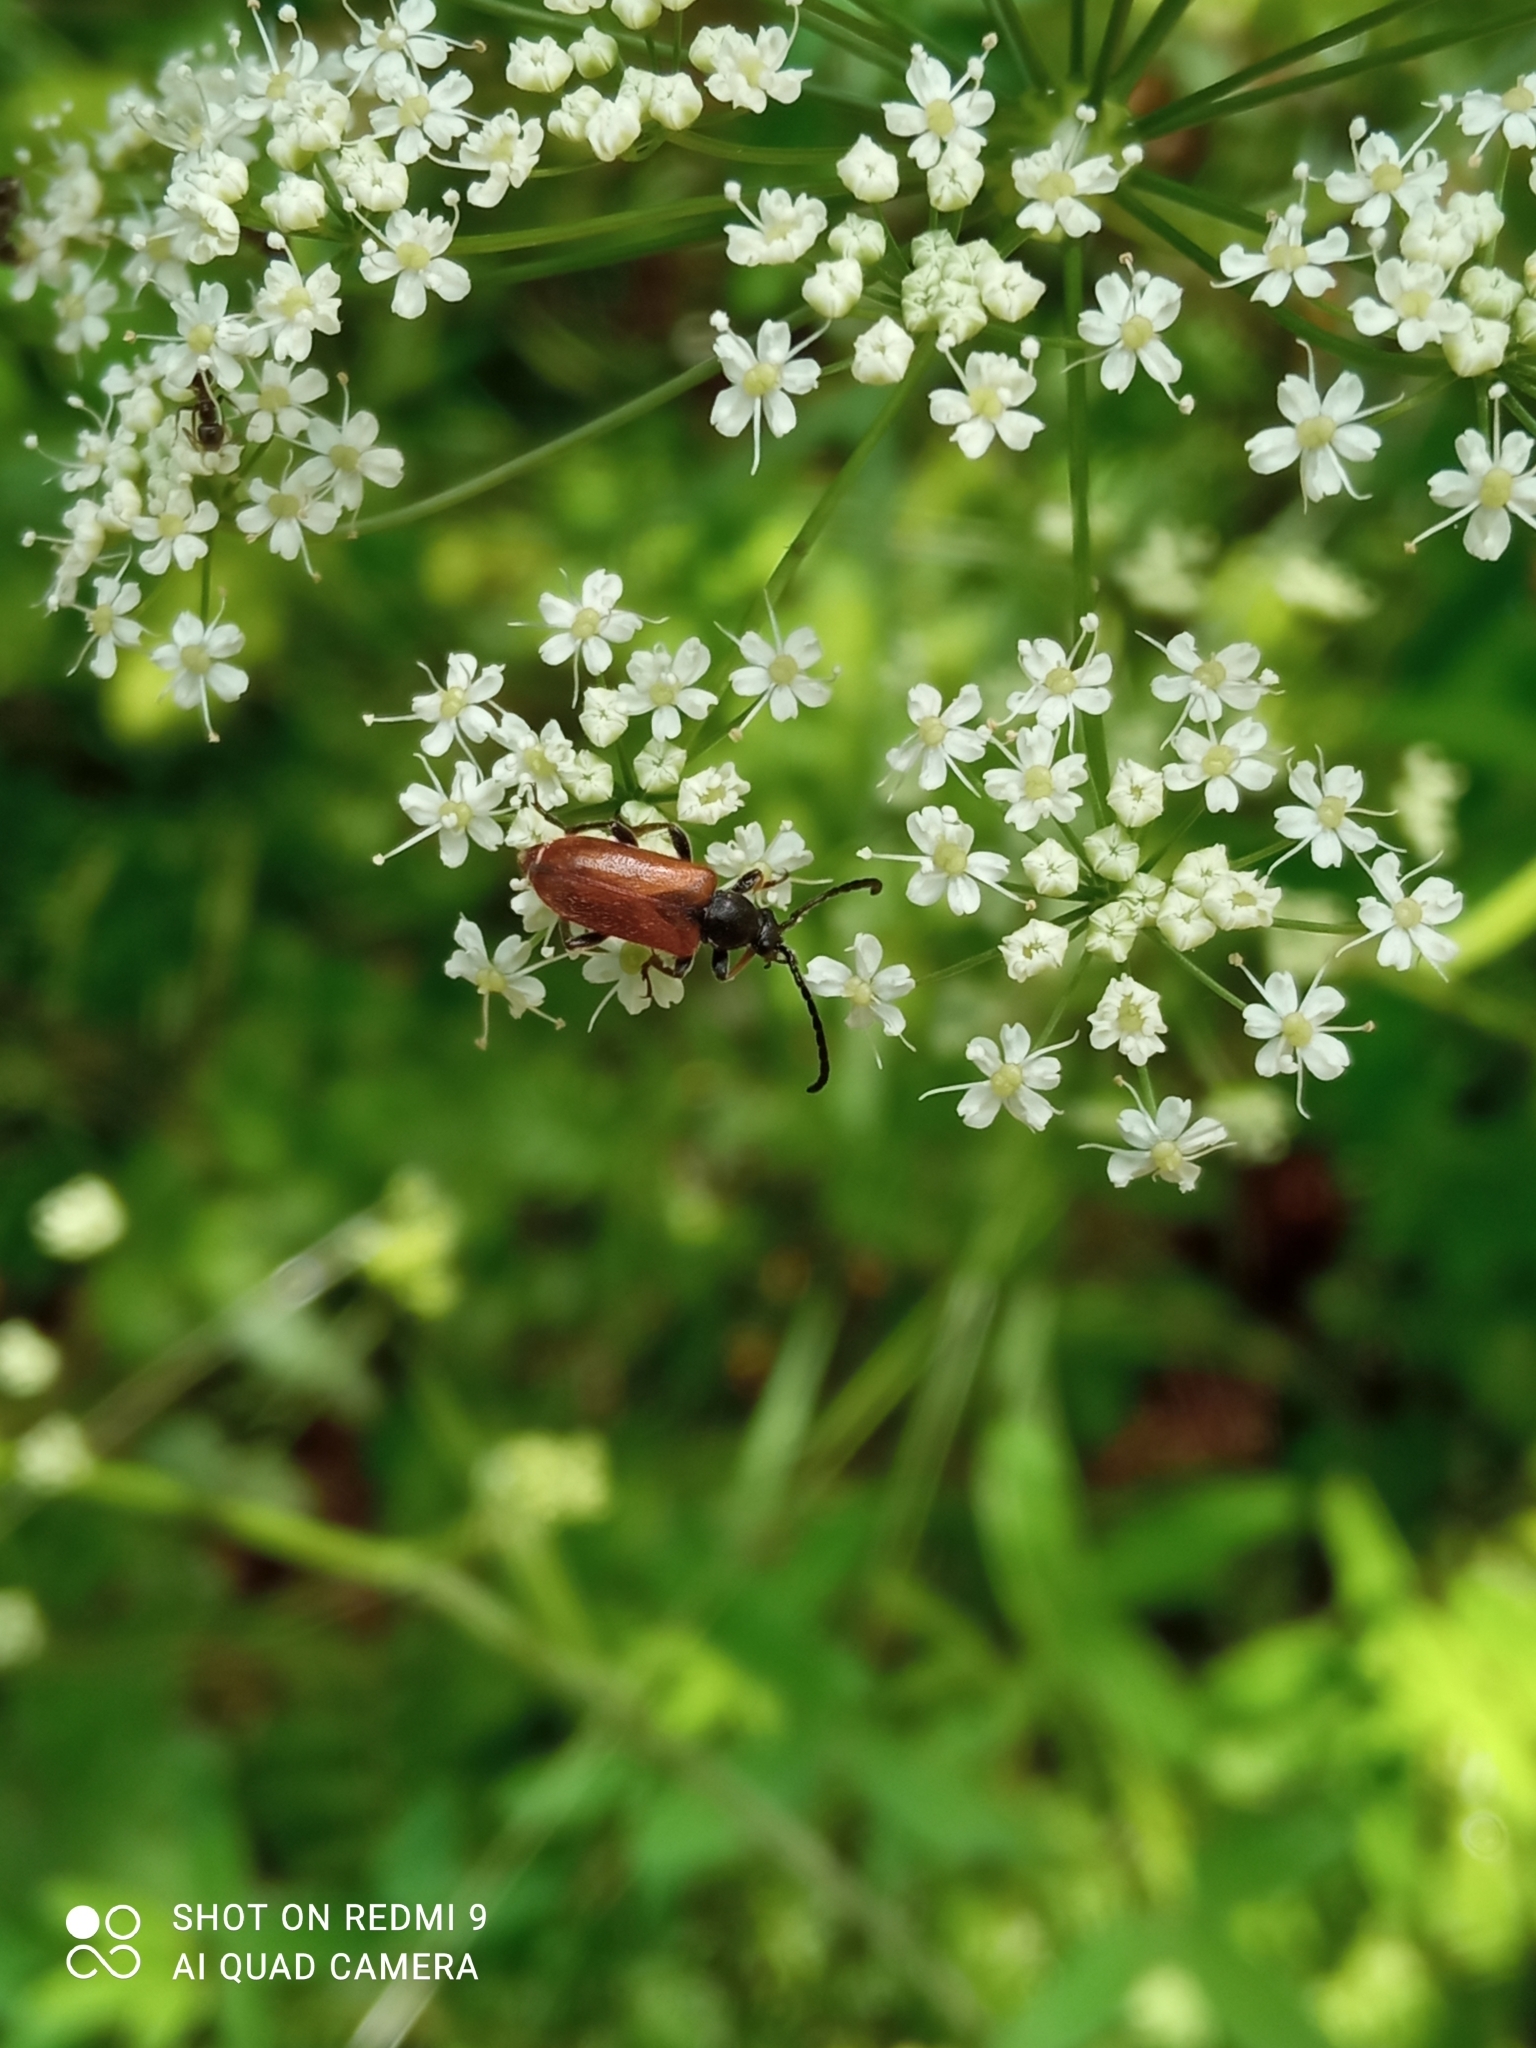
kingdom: Animalia
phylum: Arthropoda
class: Insecta
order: Coleoptera
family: Cerambycidae
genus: Pseudovadonia
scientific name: Pseudovadonia livida
